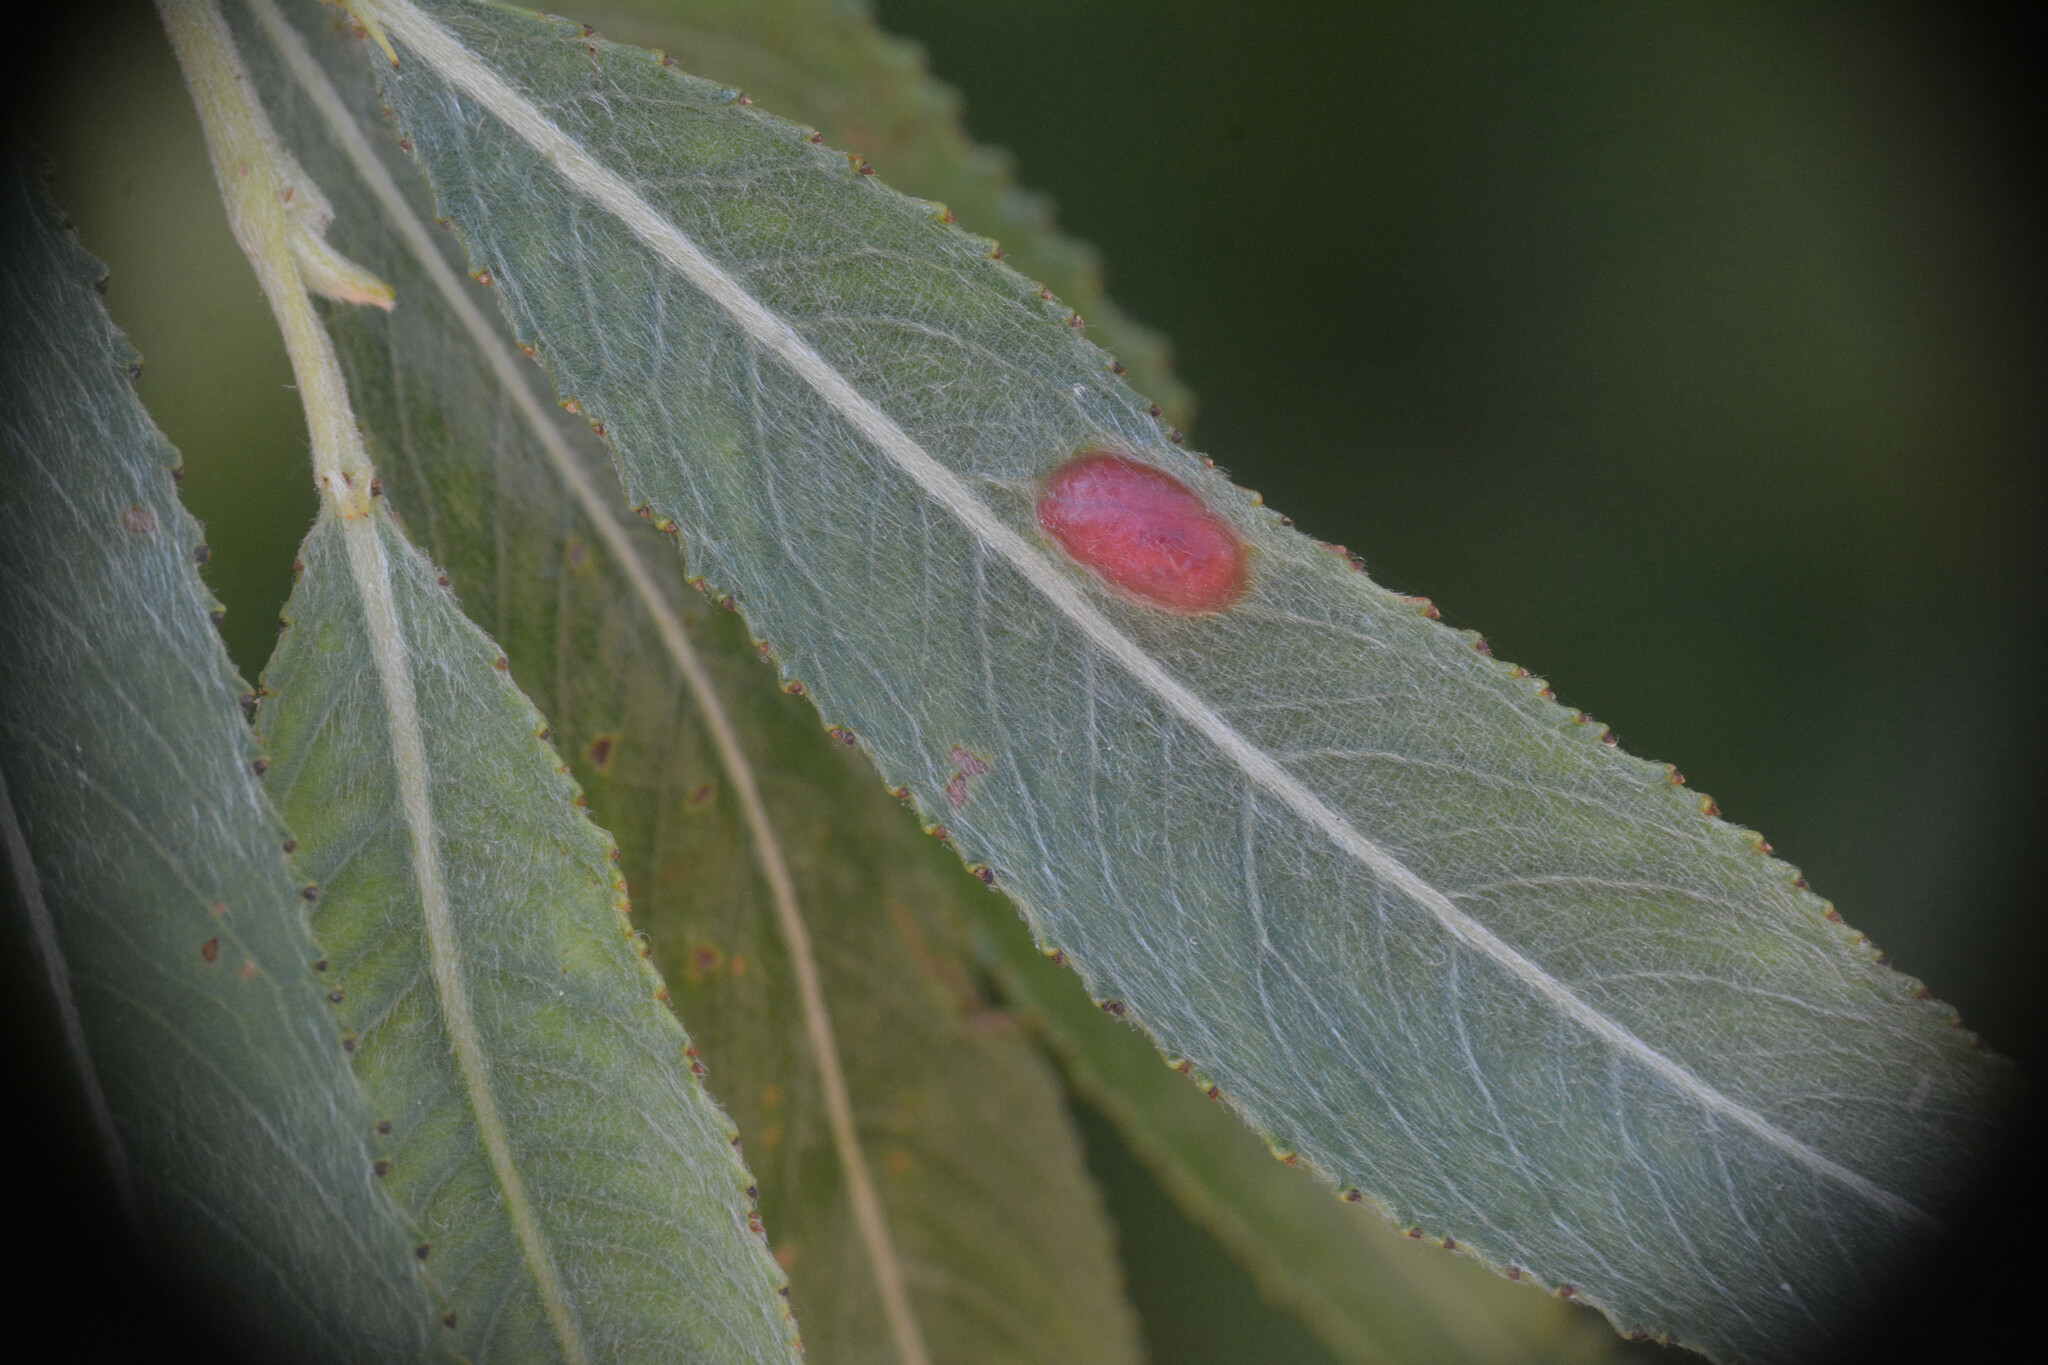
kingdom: Animalia
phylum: Arthropoda
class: Insecta
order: Hymenoptera
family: Tenthredinidae
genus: Pontania
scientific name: Pontania proxima
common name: Common sawfly
